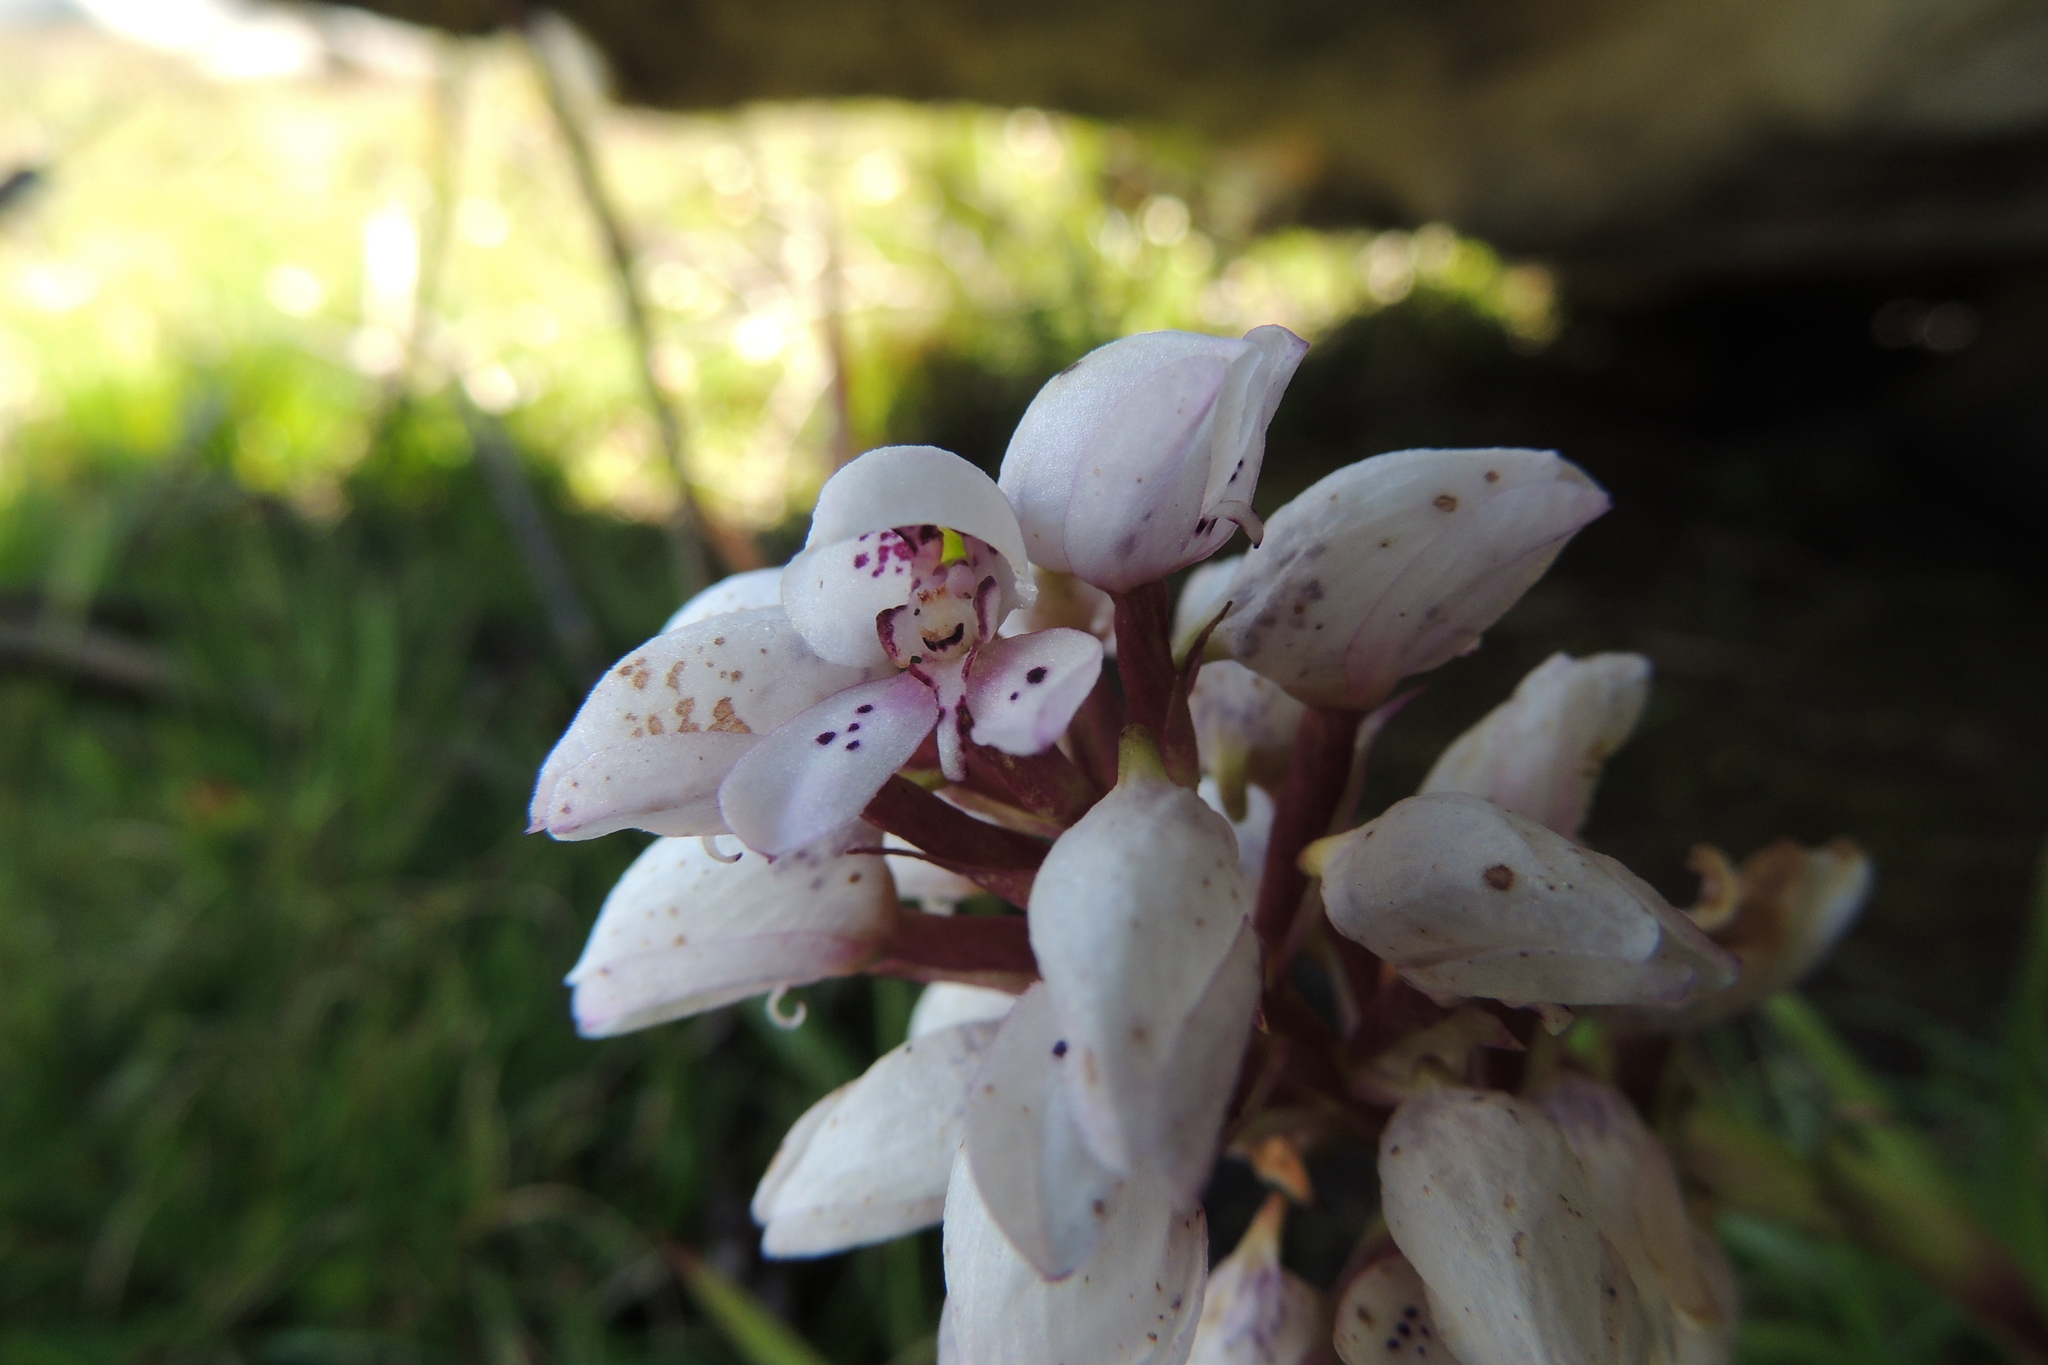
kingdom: Plantae
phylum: Tracheophyta
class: Liliopsida
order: Asparagales
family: Orchidaceae
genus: Disa
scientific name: Disa subtenuicornis
